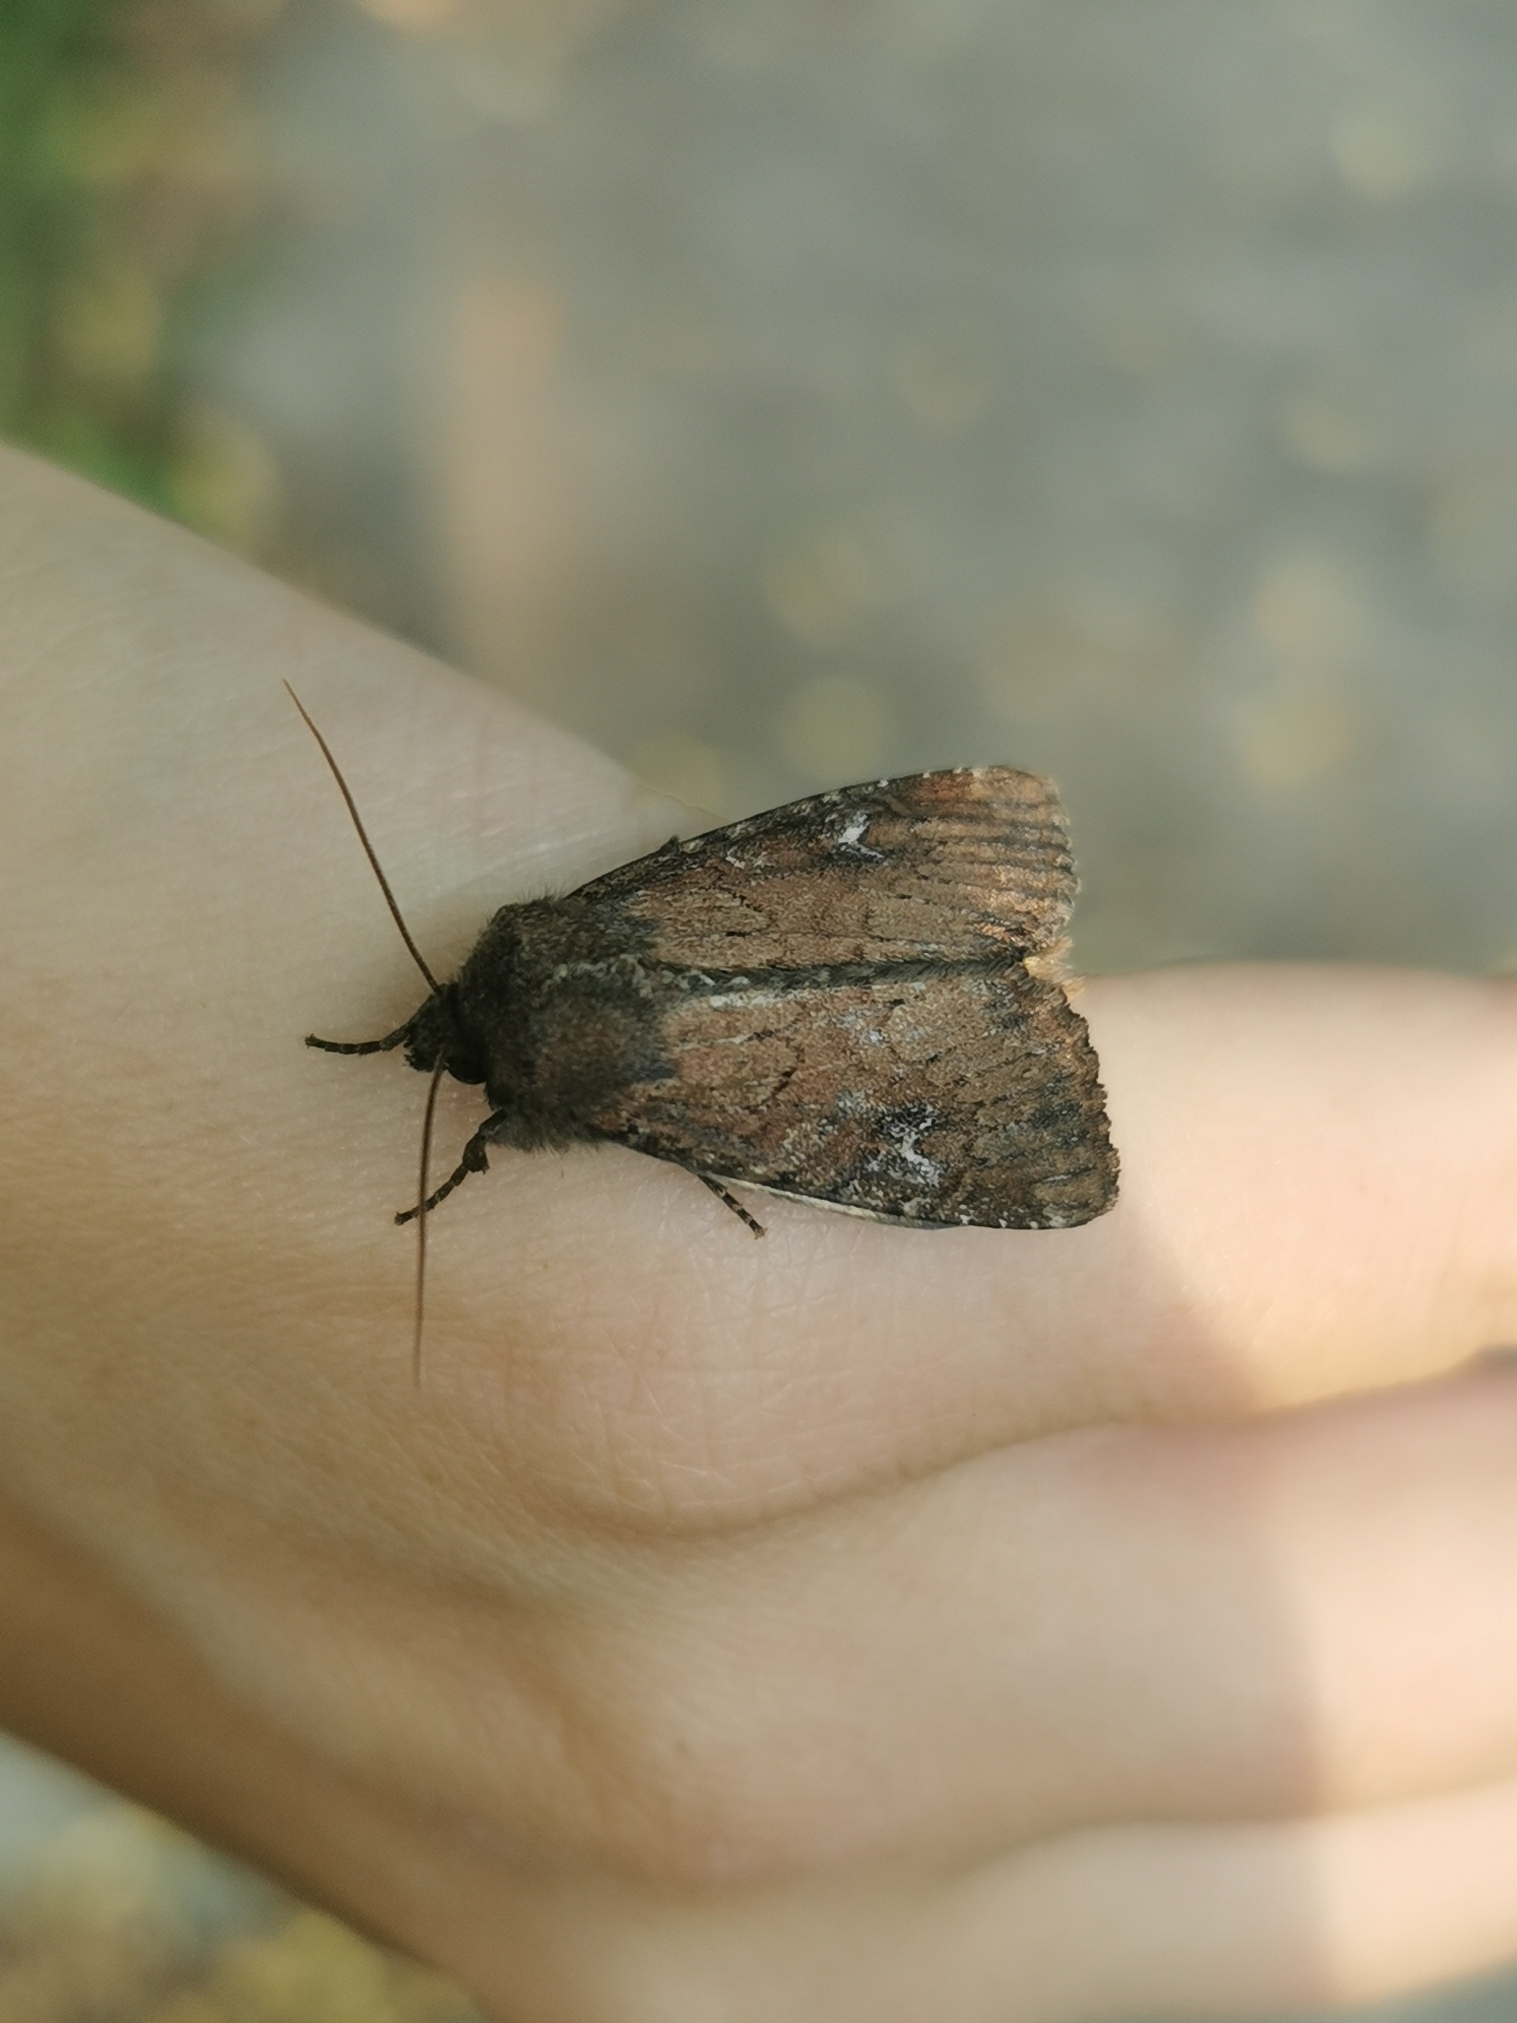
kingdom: Animalia
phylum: Arthropoda
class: Insecta
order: Lepidoptera
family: Noctuidae
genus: Apamea
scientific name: Apamea lateritia
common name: Scarce brindle
